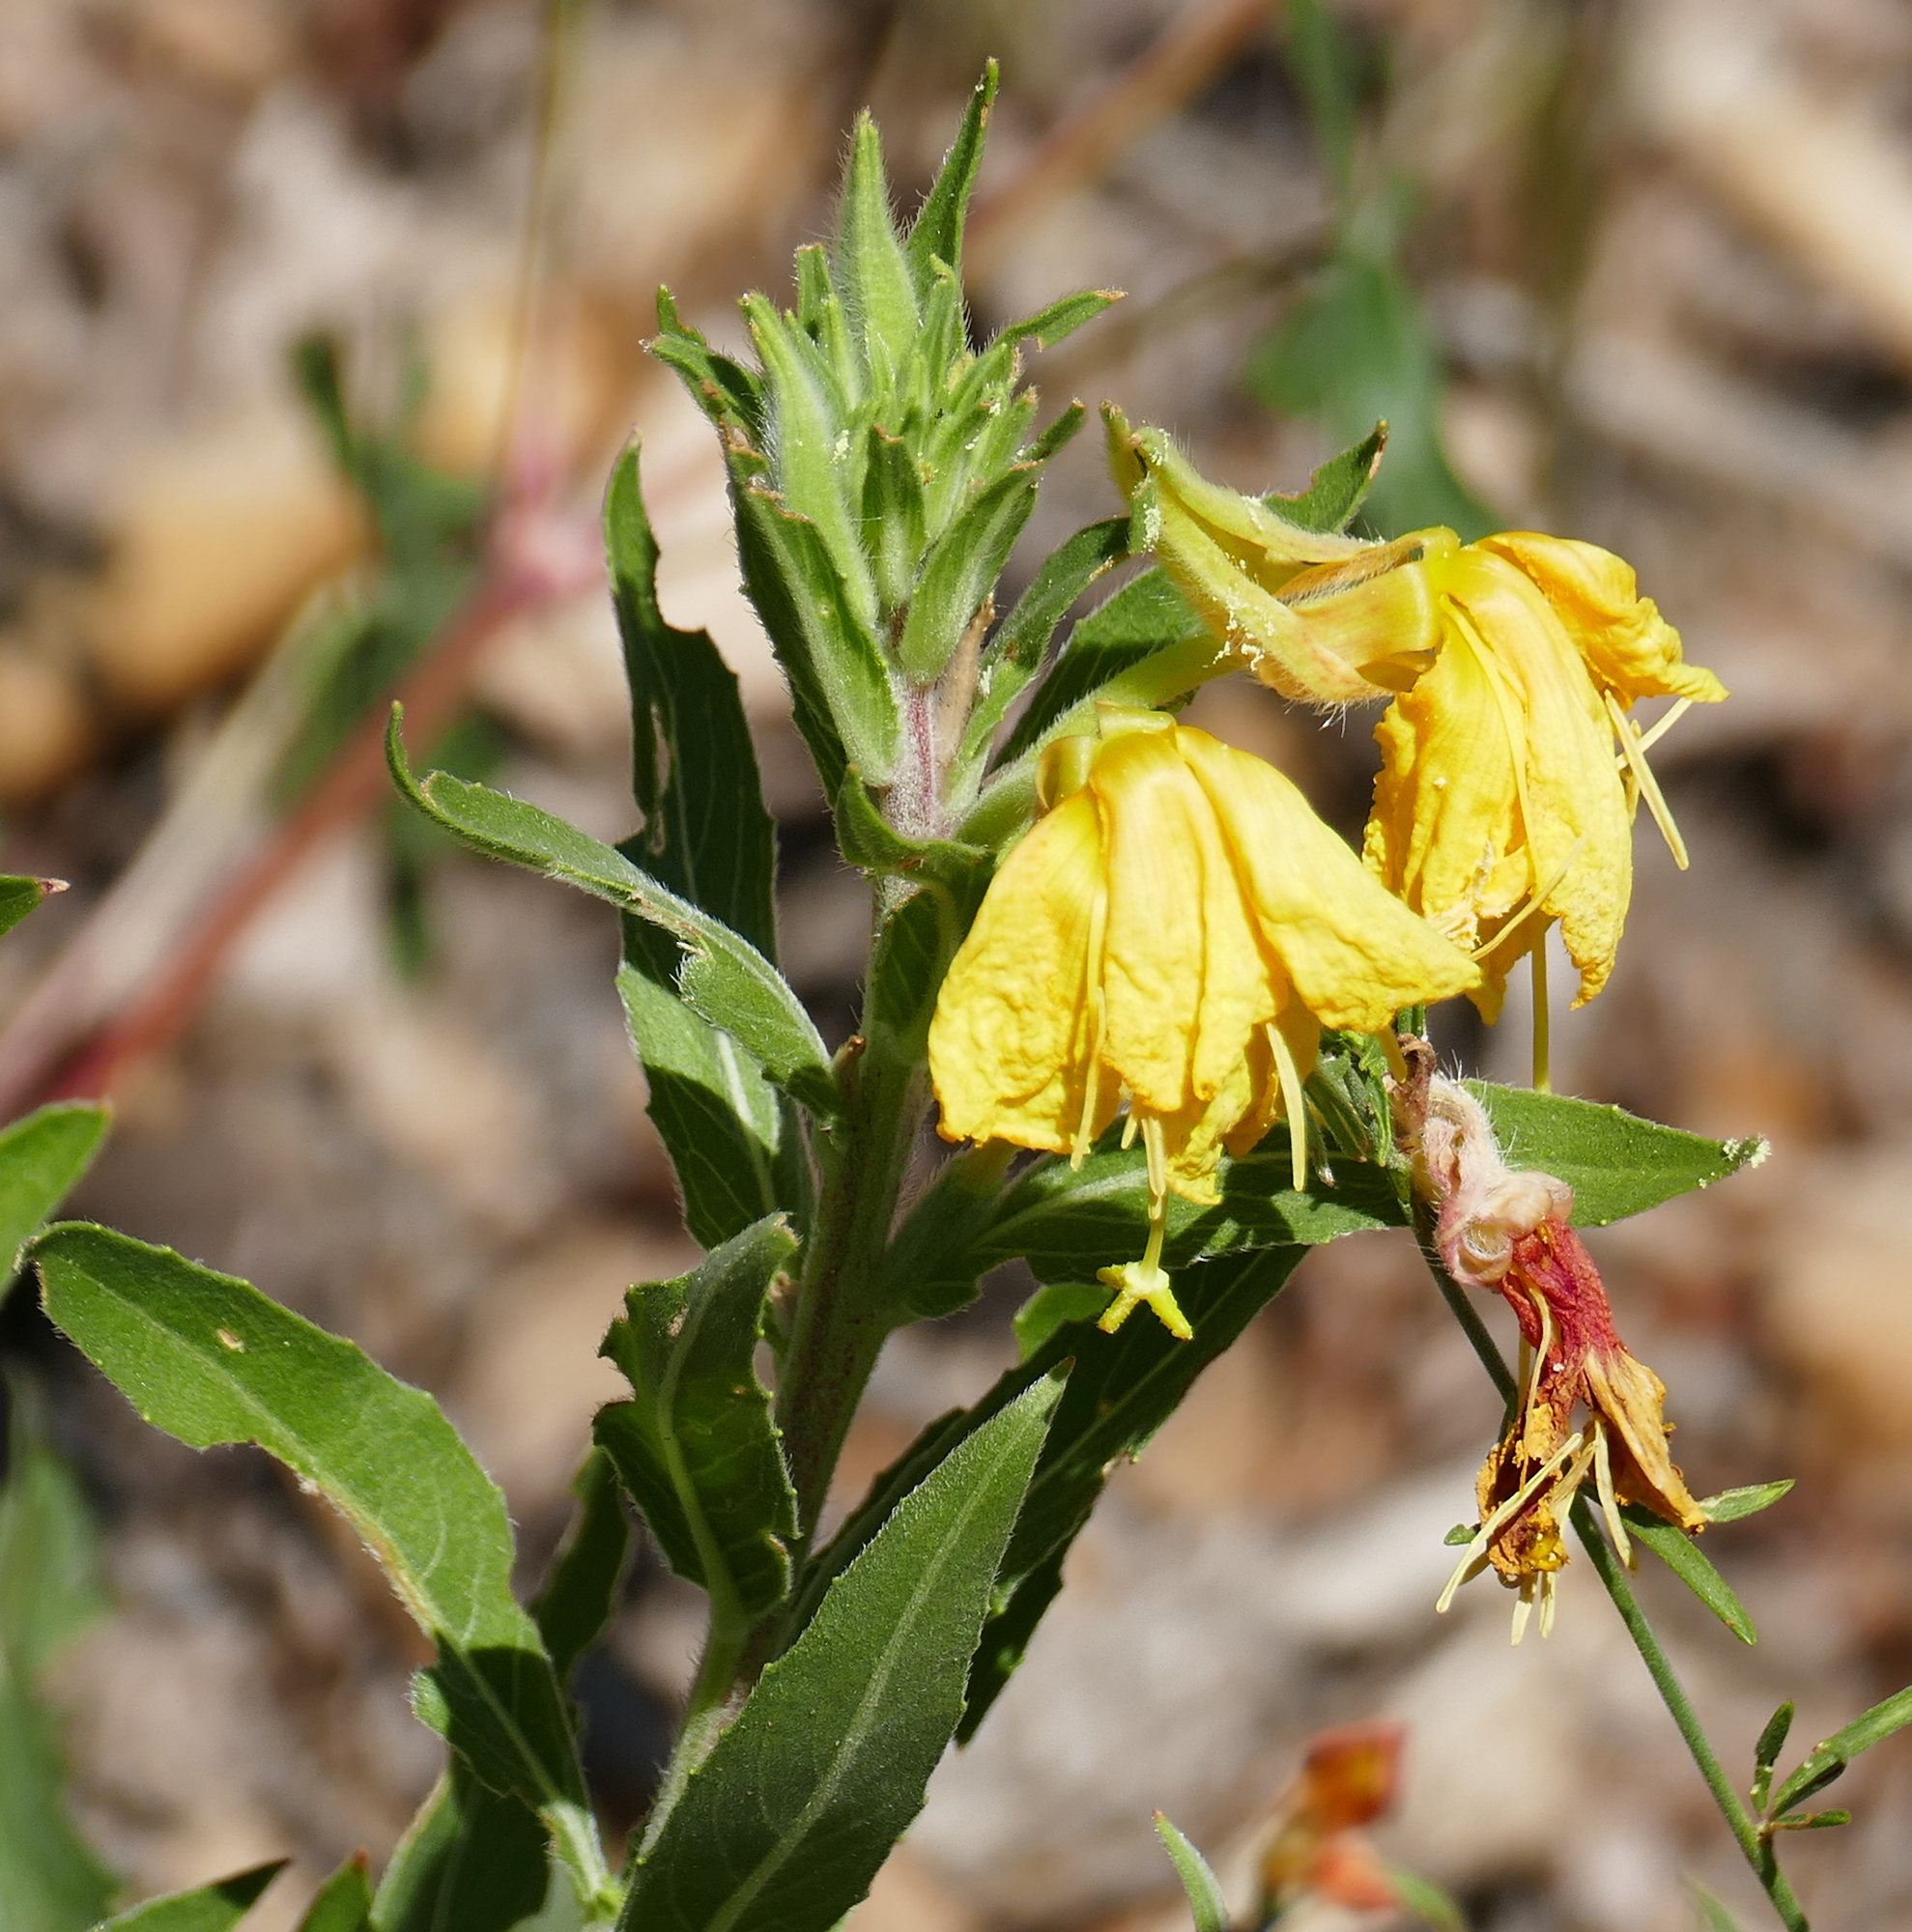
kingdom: Plantae
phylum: Tracheophyta
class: Magnoliopsida
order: Myrtales
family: Onagraceae
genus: Oenothera
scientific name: Oenothera elata
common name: Hooker's evening-primrose
